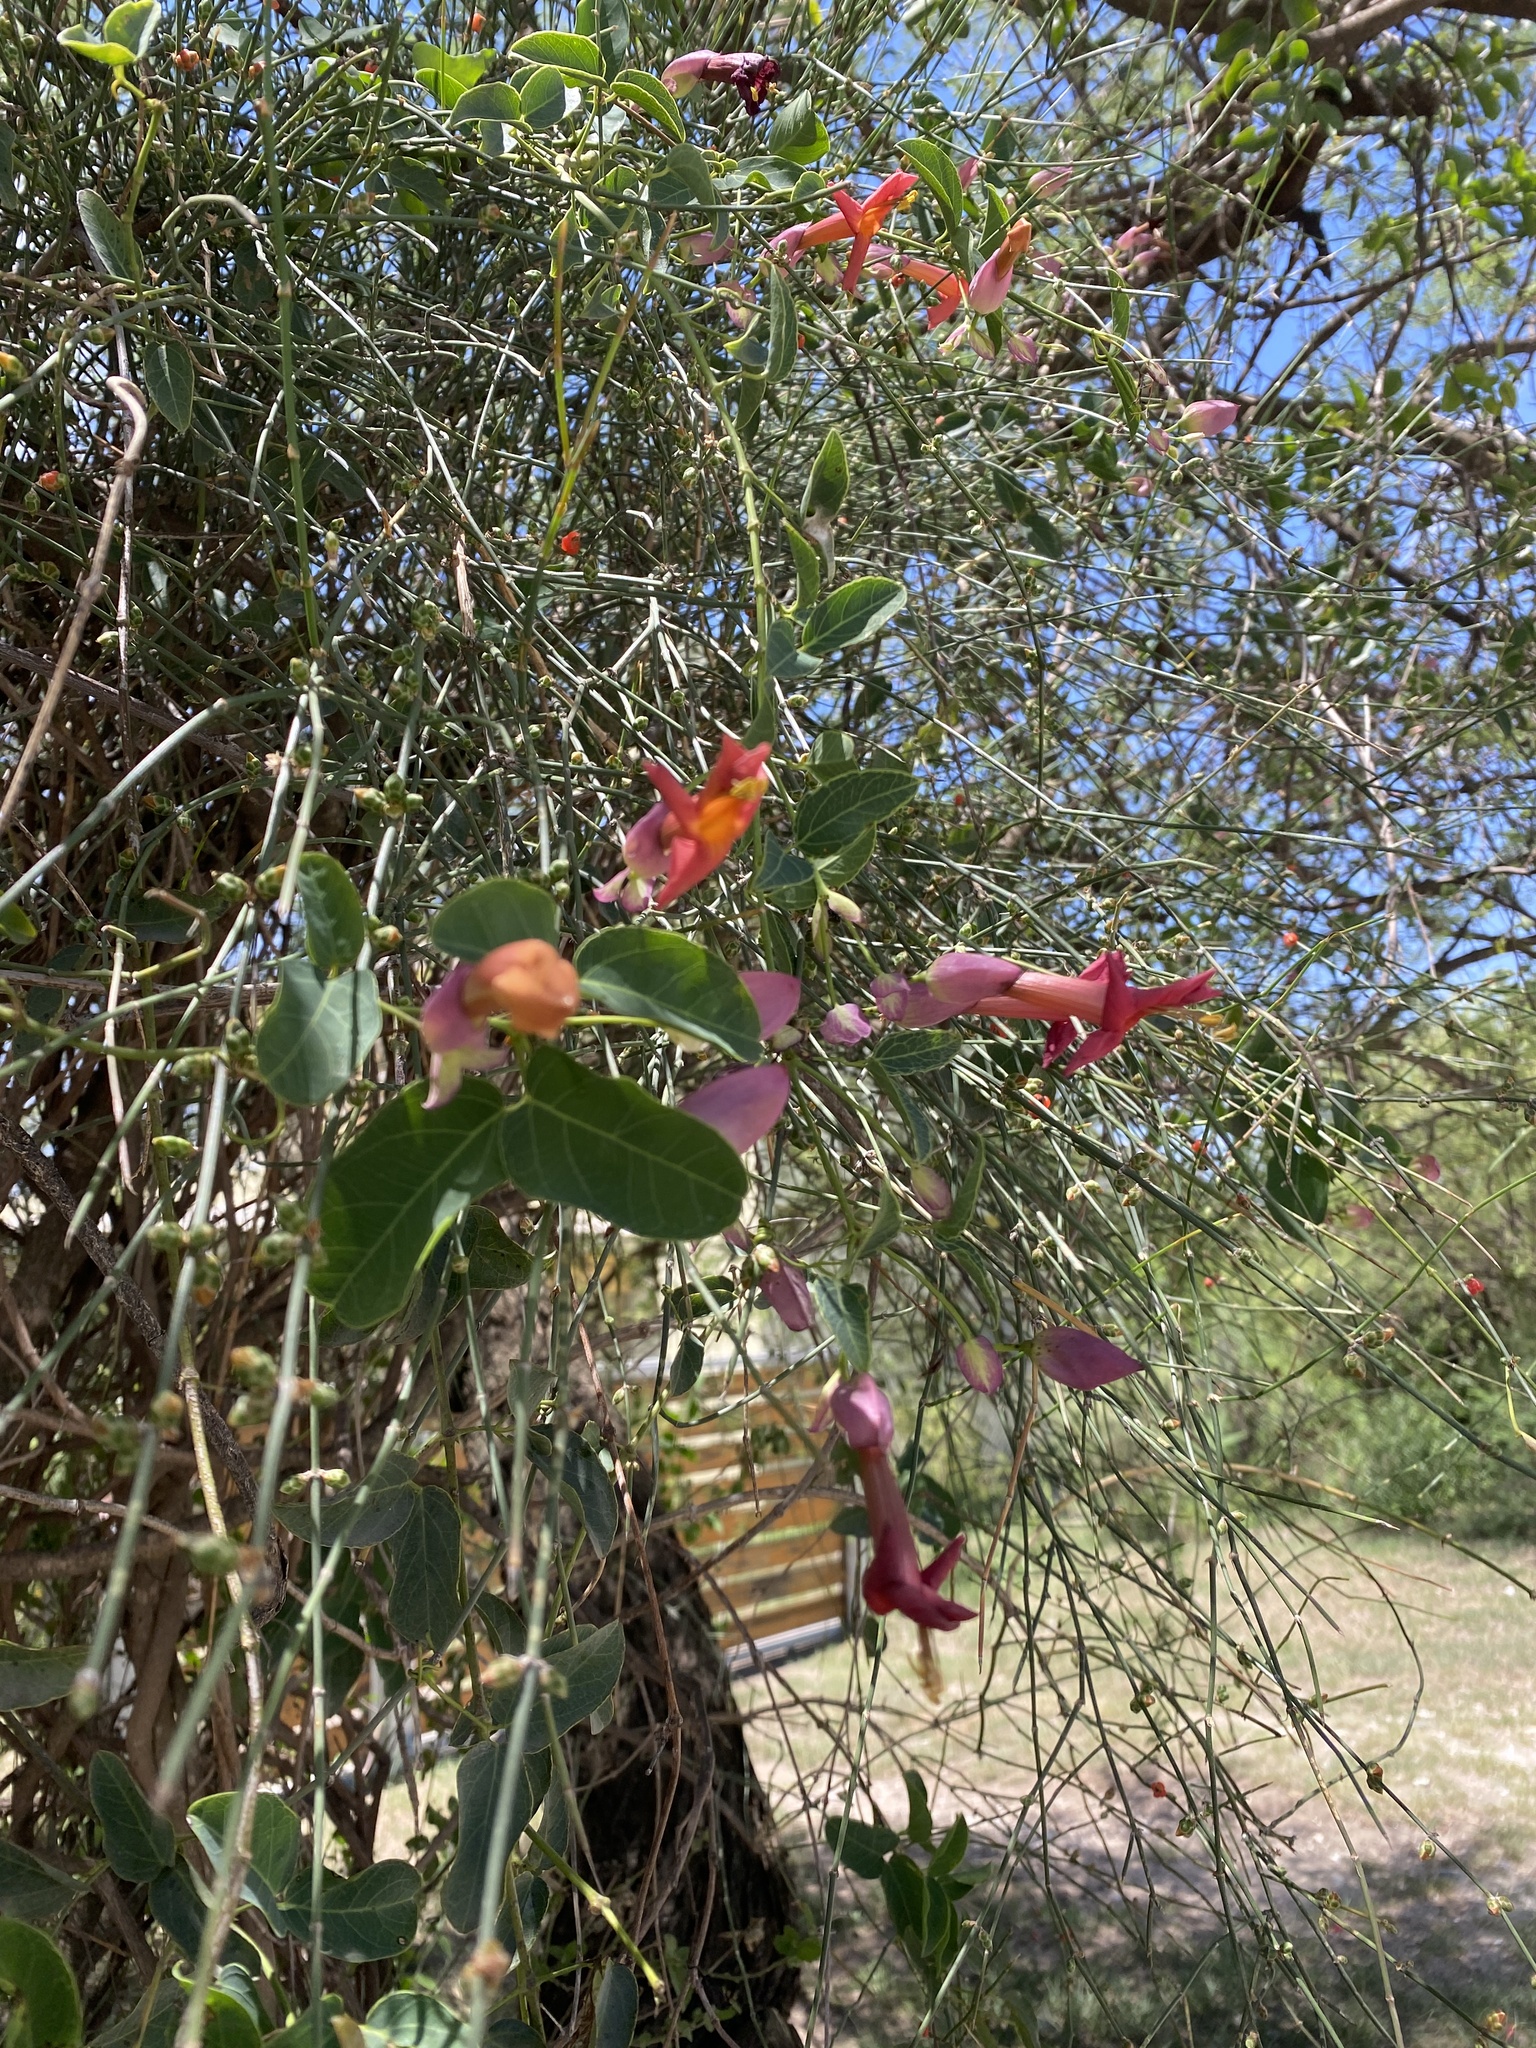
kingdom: Plantae
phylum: Tracheophyta
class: Magnoliopsida
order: Lamiales
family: Bignoniaceae
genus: Dolichandra
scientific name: Dolichandra cynanchoides
